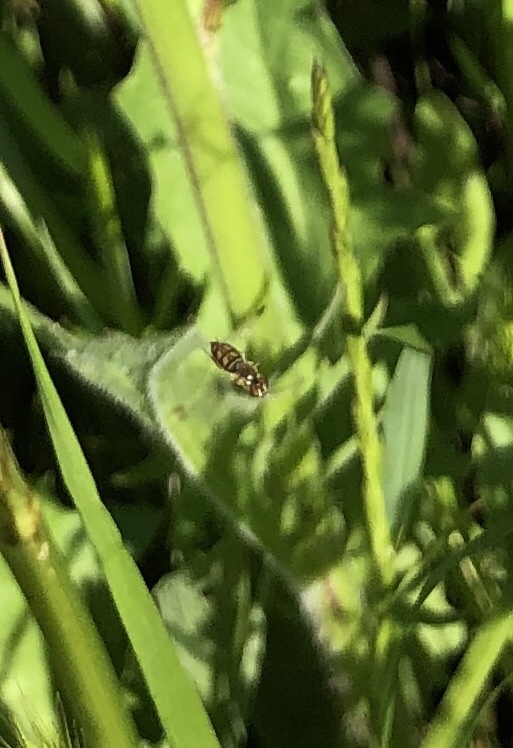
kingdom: Animalia
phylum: Arthropoda
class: Insecta
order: Diptera
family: Syrphidae
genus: Toxomerus
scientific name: Toxomerus marginatus
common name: Syrphid fly
